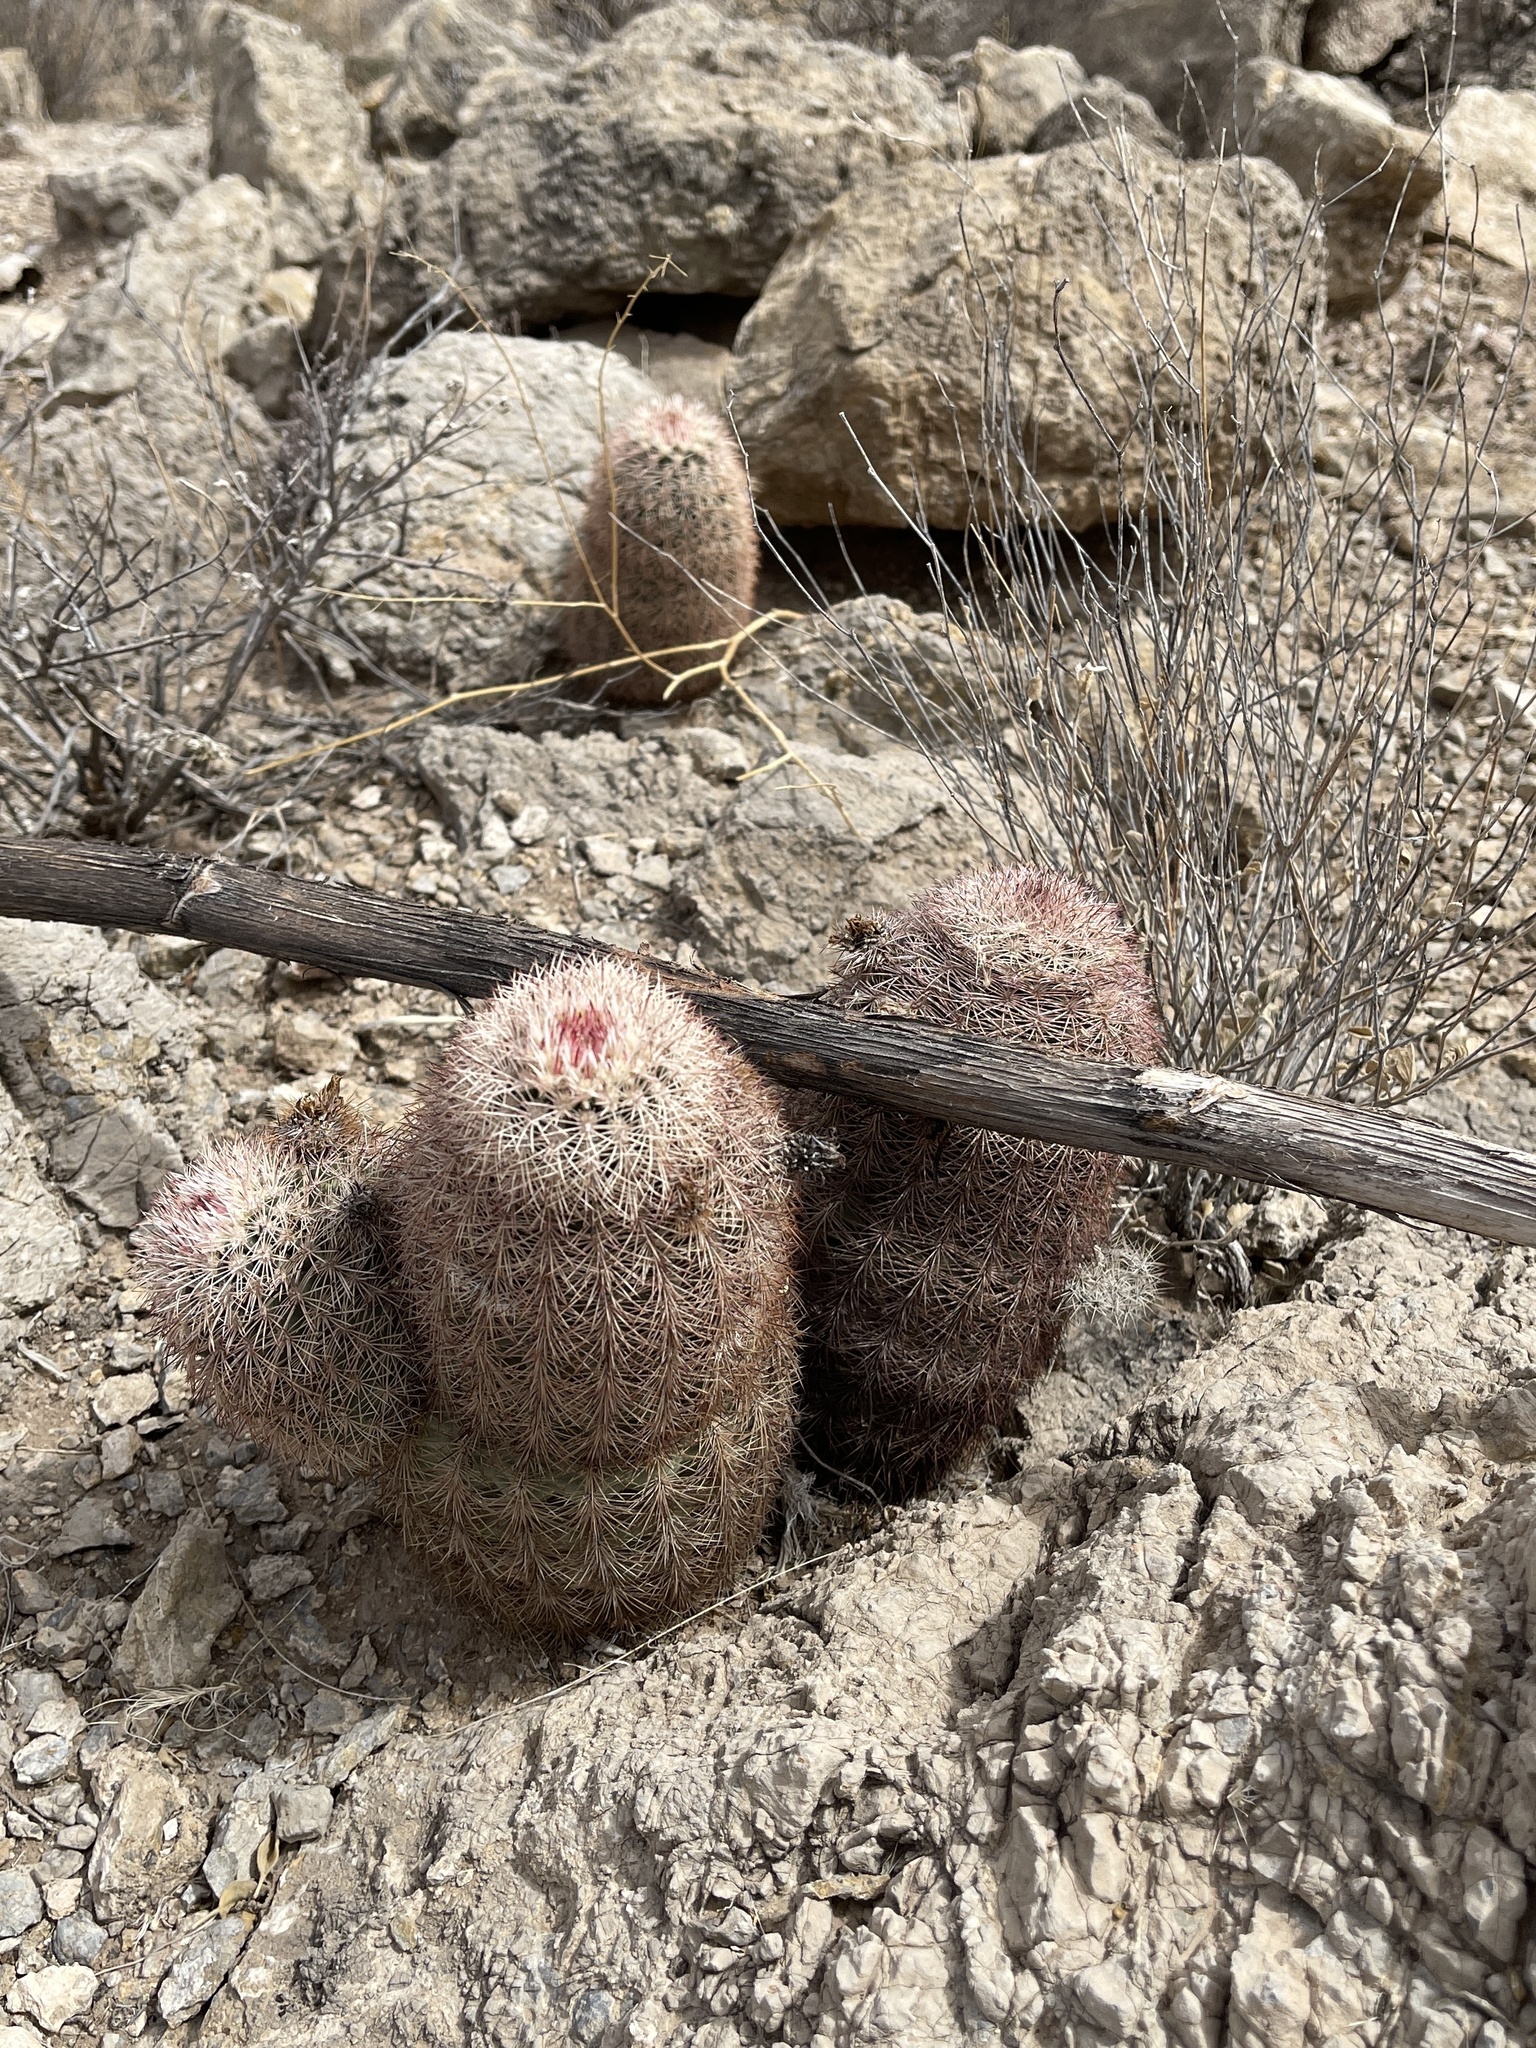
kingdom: Plantae
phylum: Tracheophyta
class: Magnoliopsida
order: Caryophyllales
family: Cactaceae
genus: Echinocereus
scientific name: Echinocereus dasyacanthus
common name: Spiny hedgehog cactus
